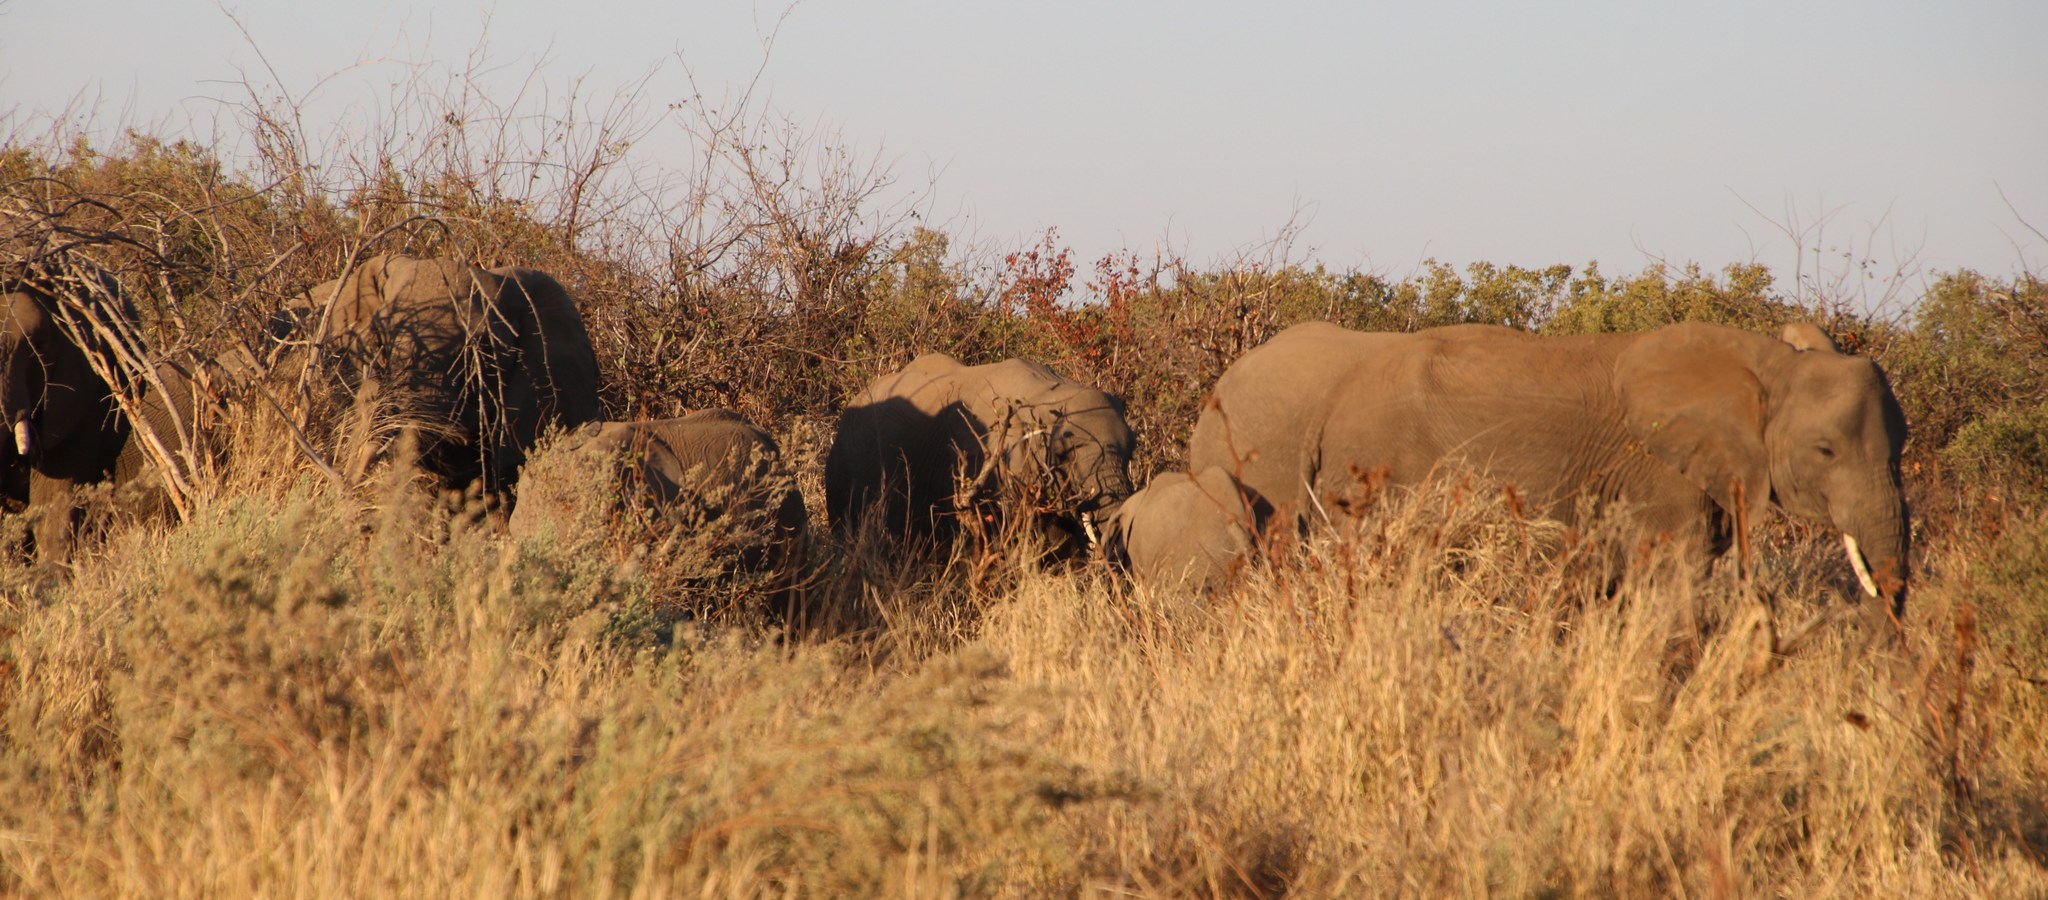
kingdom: Animalia
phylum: Chordata
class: Mammalia
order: Proboscidea
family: Elephantidae
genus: Loxodonta
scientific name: Loxodonta africana
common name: African elephant
